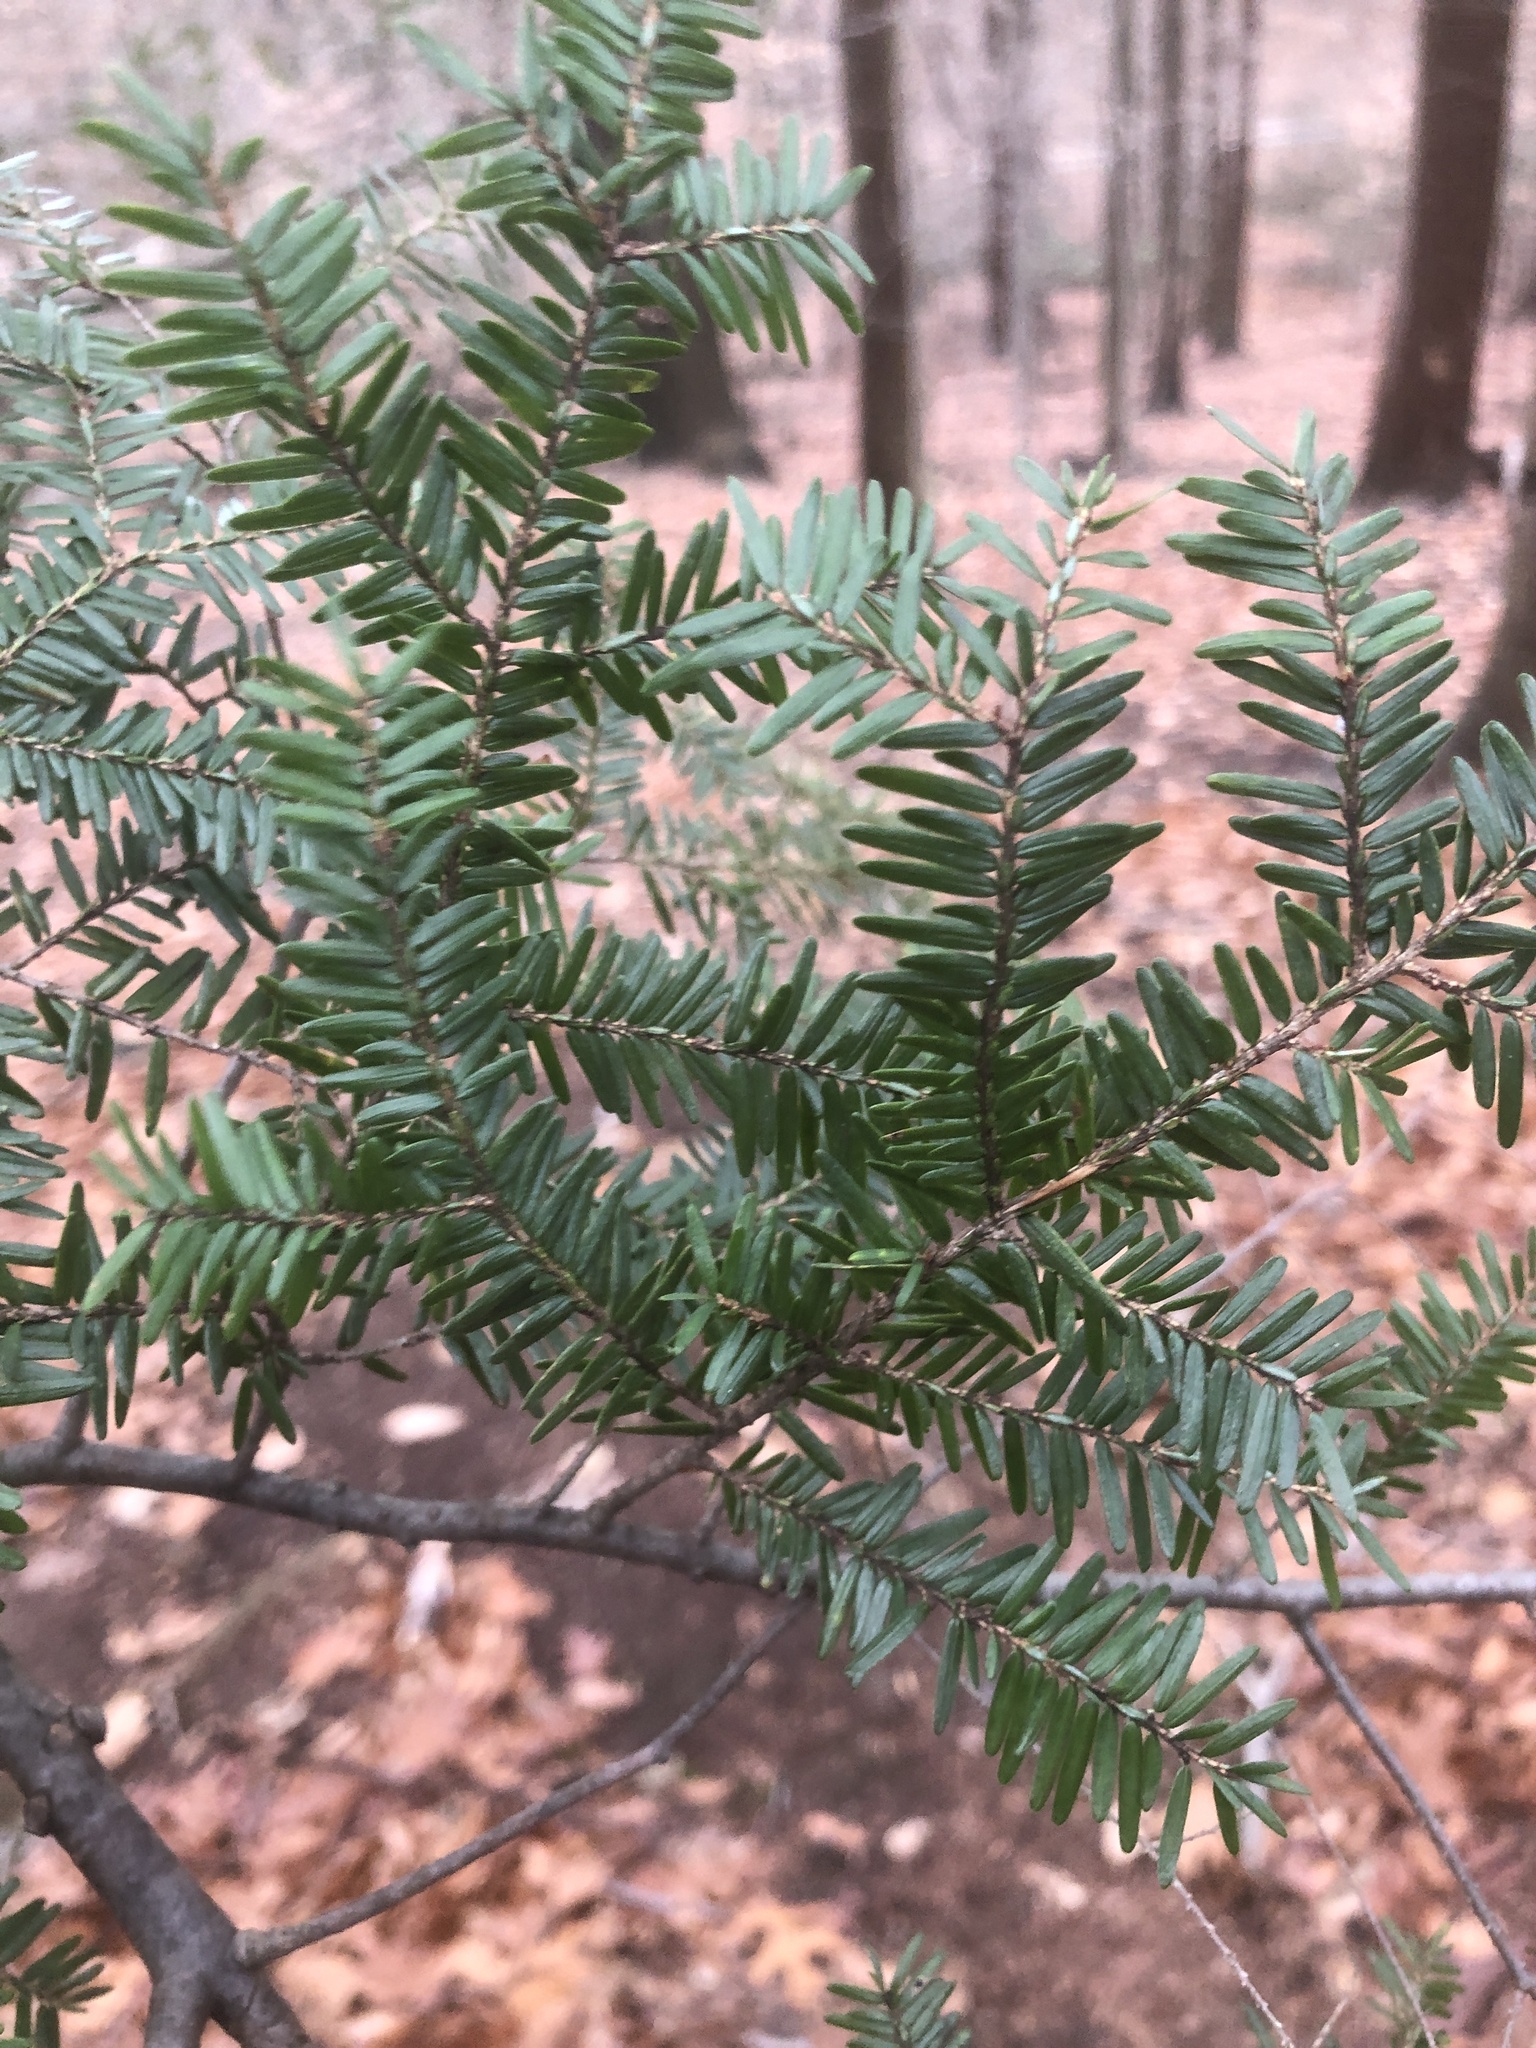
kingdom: Plantae
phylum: Tracheophyta
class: Pinopsida
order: Pinales
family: Pinaceae
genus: Tsuga
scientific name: Tsuga canadensis
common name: Eastern hemlock
